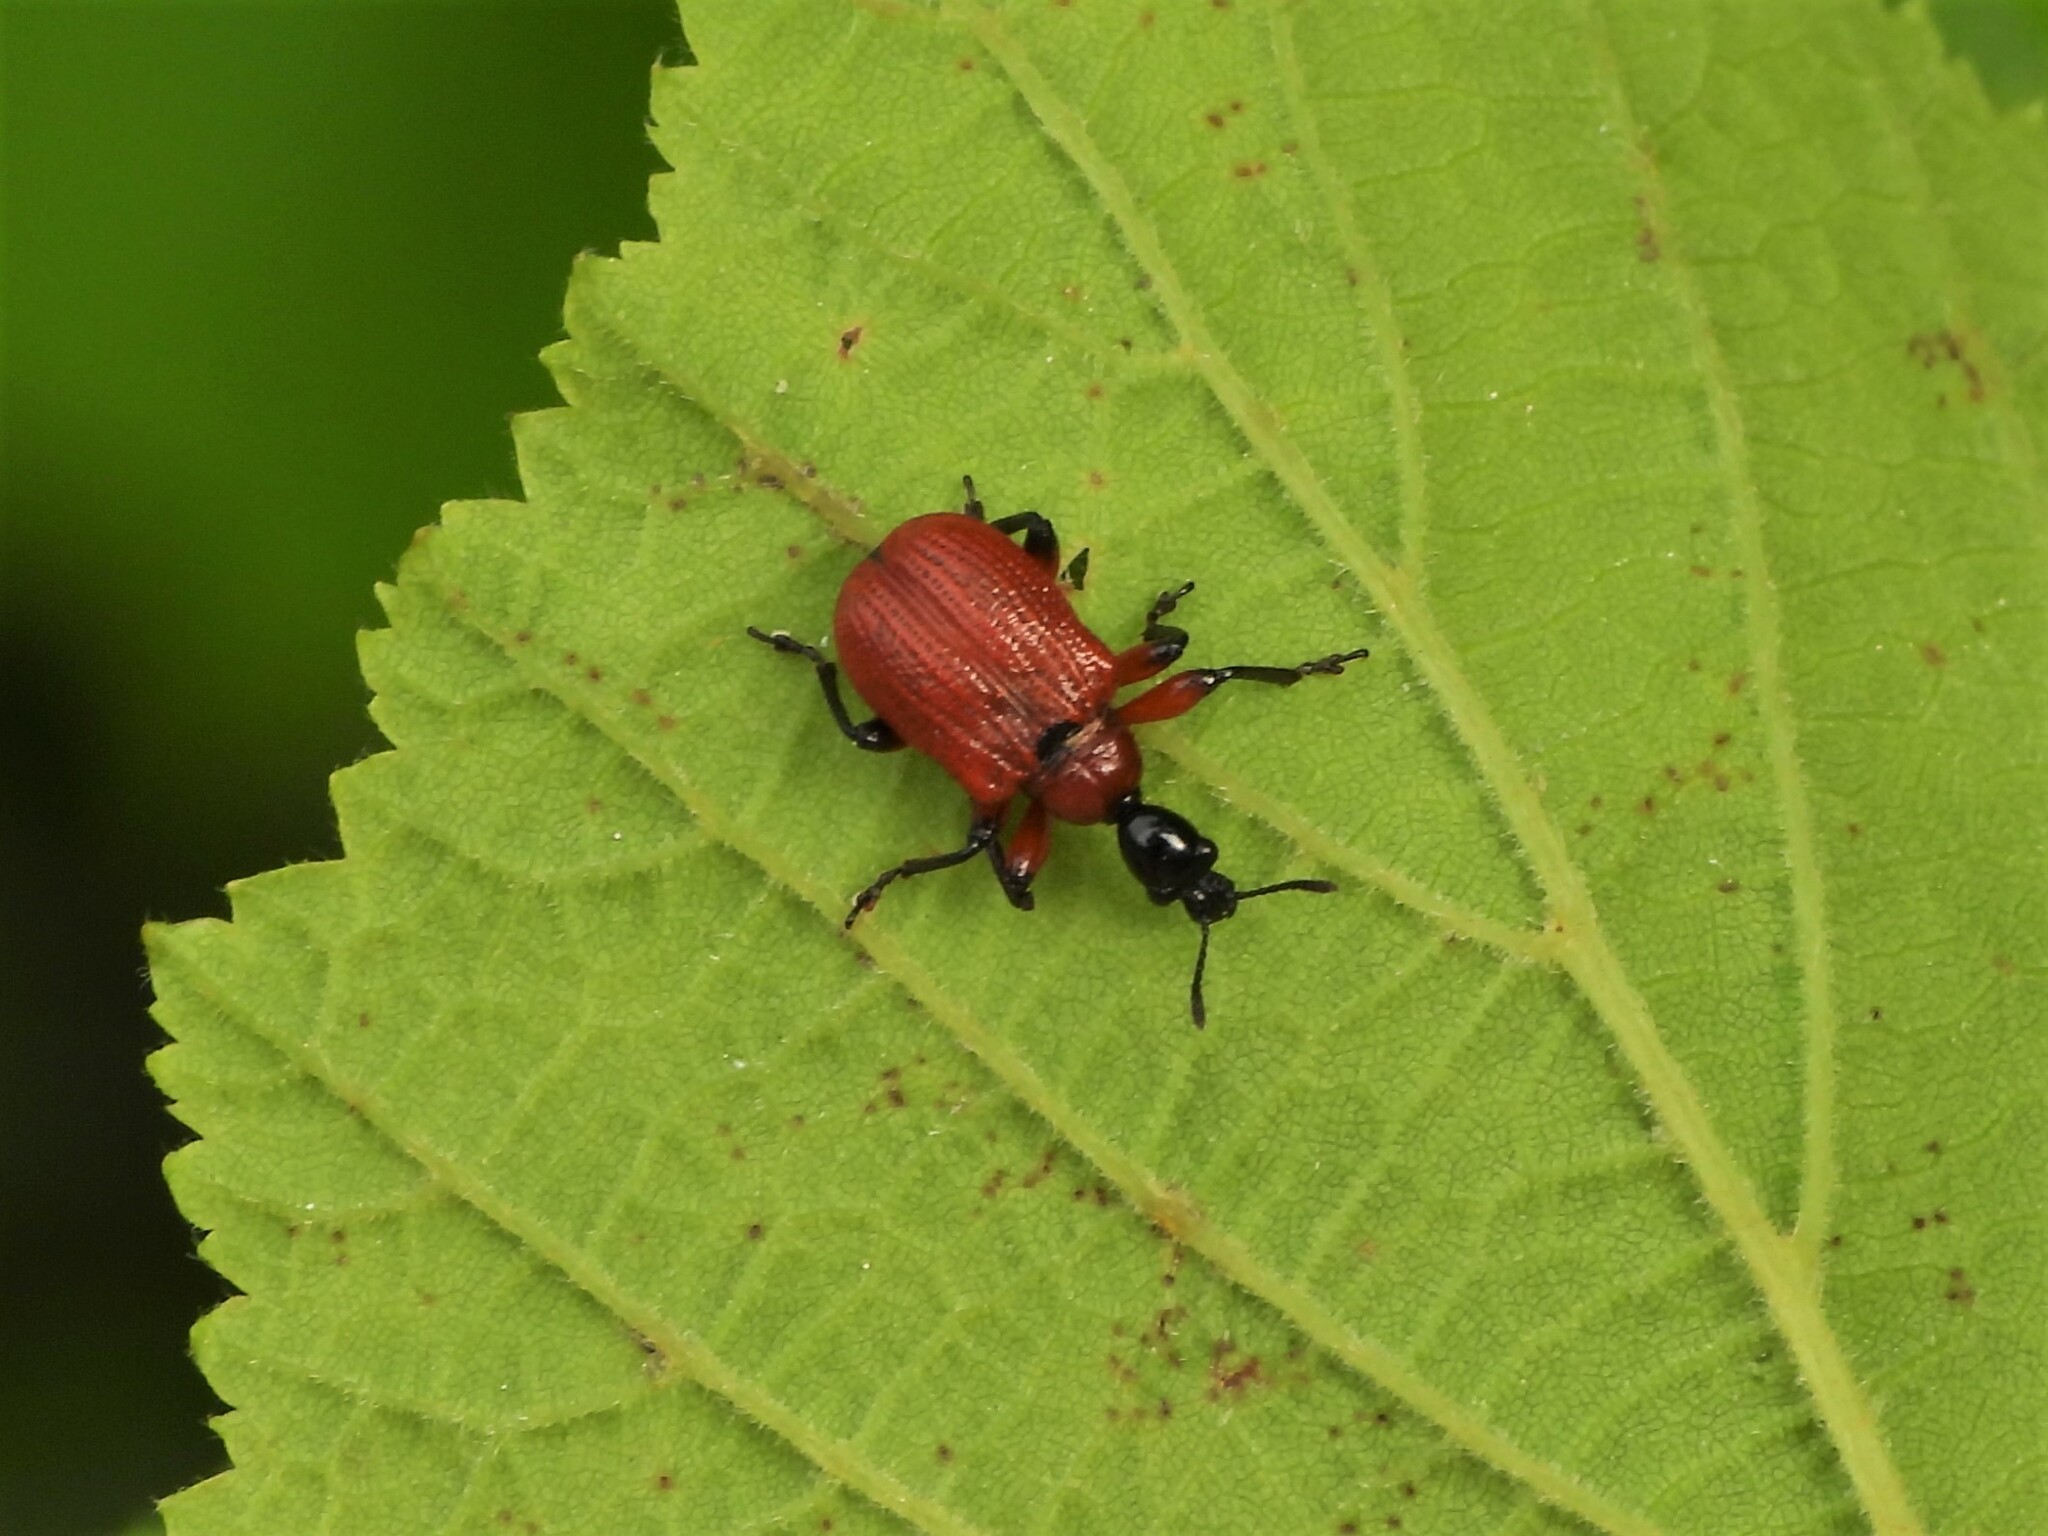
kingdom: Animalia
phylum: Arthropoda
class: Insecta
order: Coleoptera
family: Attelabidae
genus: Apoderus
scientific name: Apoderus coryli
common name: Hazel leaf roller
